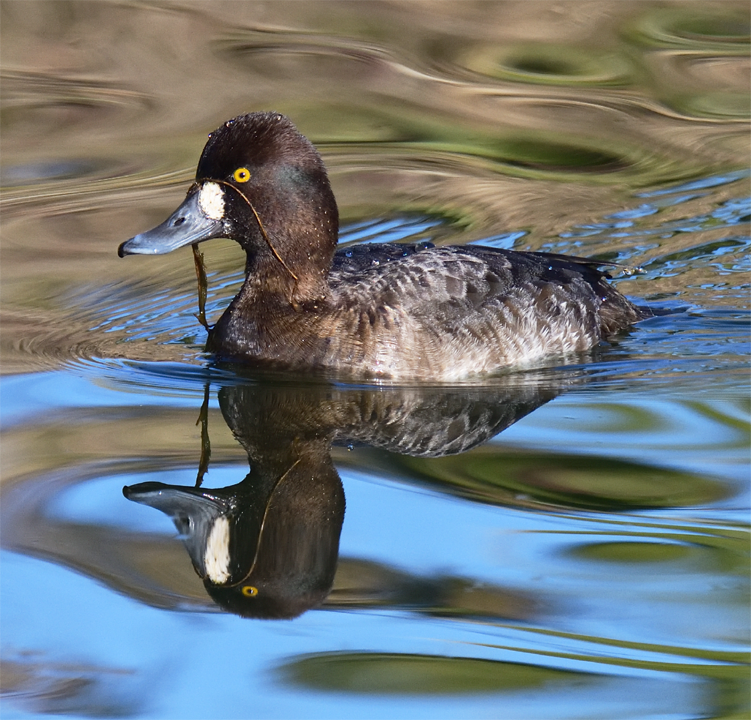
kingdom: Animalia
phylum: Chordata
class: Aves
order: Anseriformes
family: Anatidae
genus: Aythya
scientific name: Aythya affinis
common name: Lesser scaup
